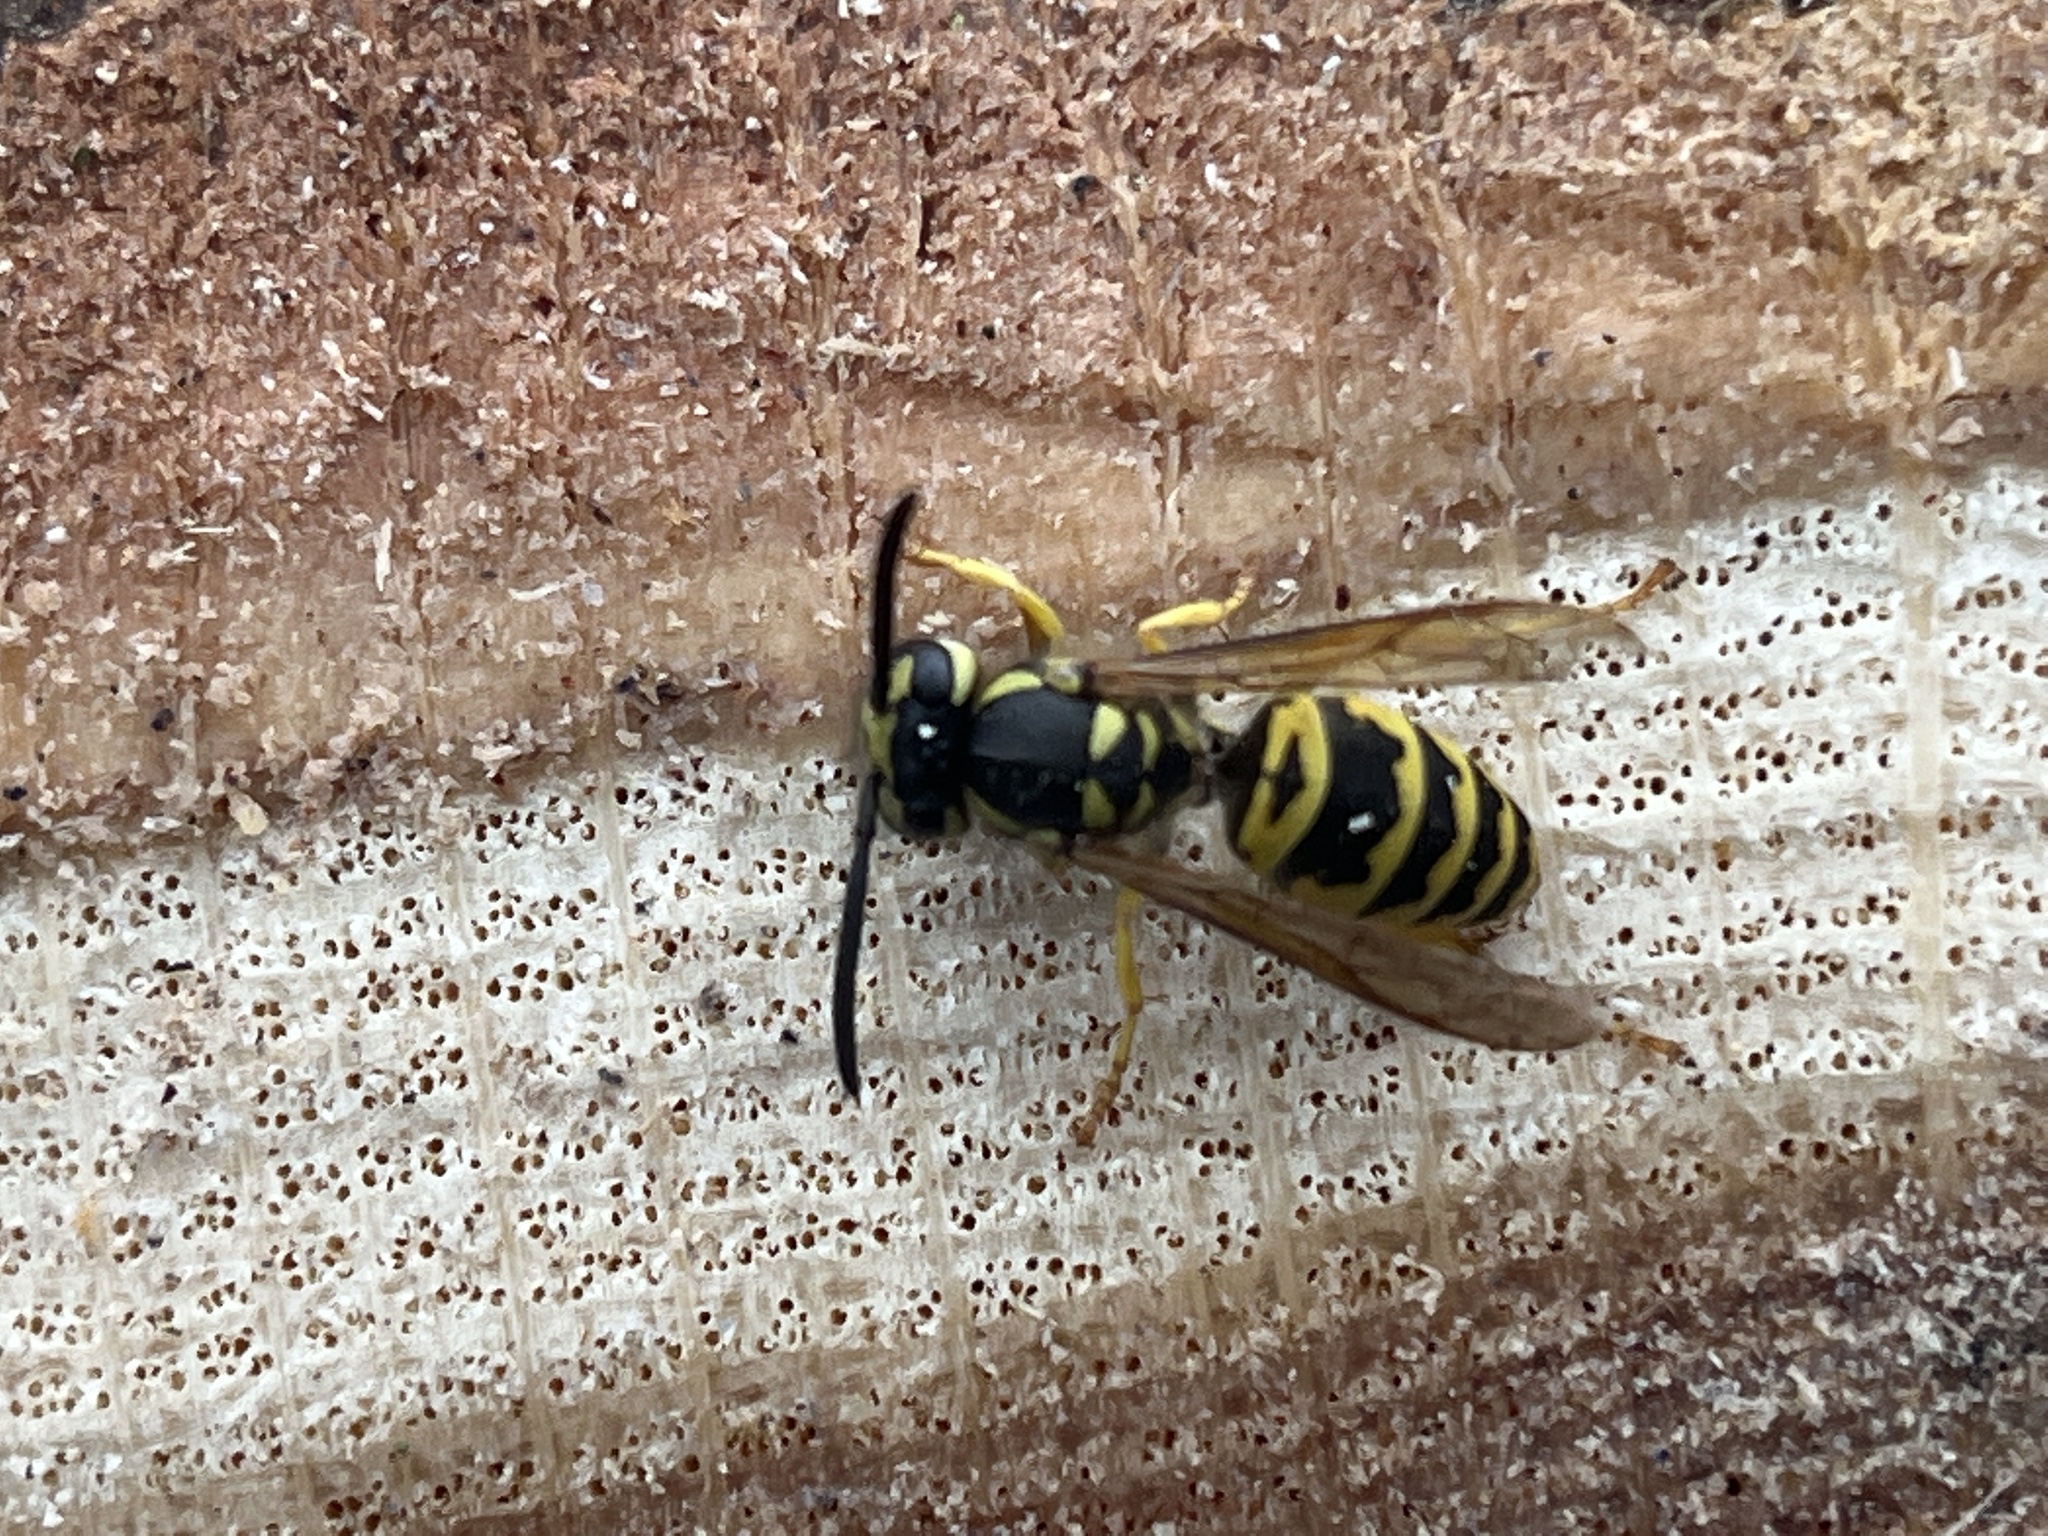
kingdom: Animalia
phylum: Arthropoda
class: Insecta
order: Hymenoptera
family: Vespidae
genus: Vespula
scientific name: Vespula maculifrons
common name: Eastern yellowjacket
